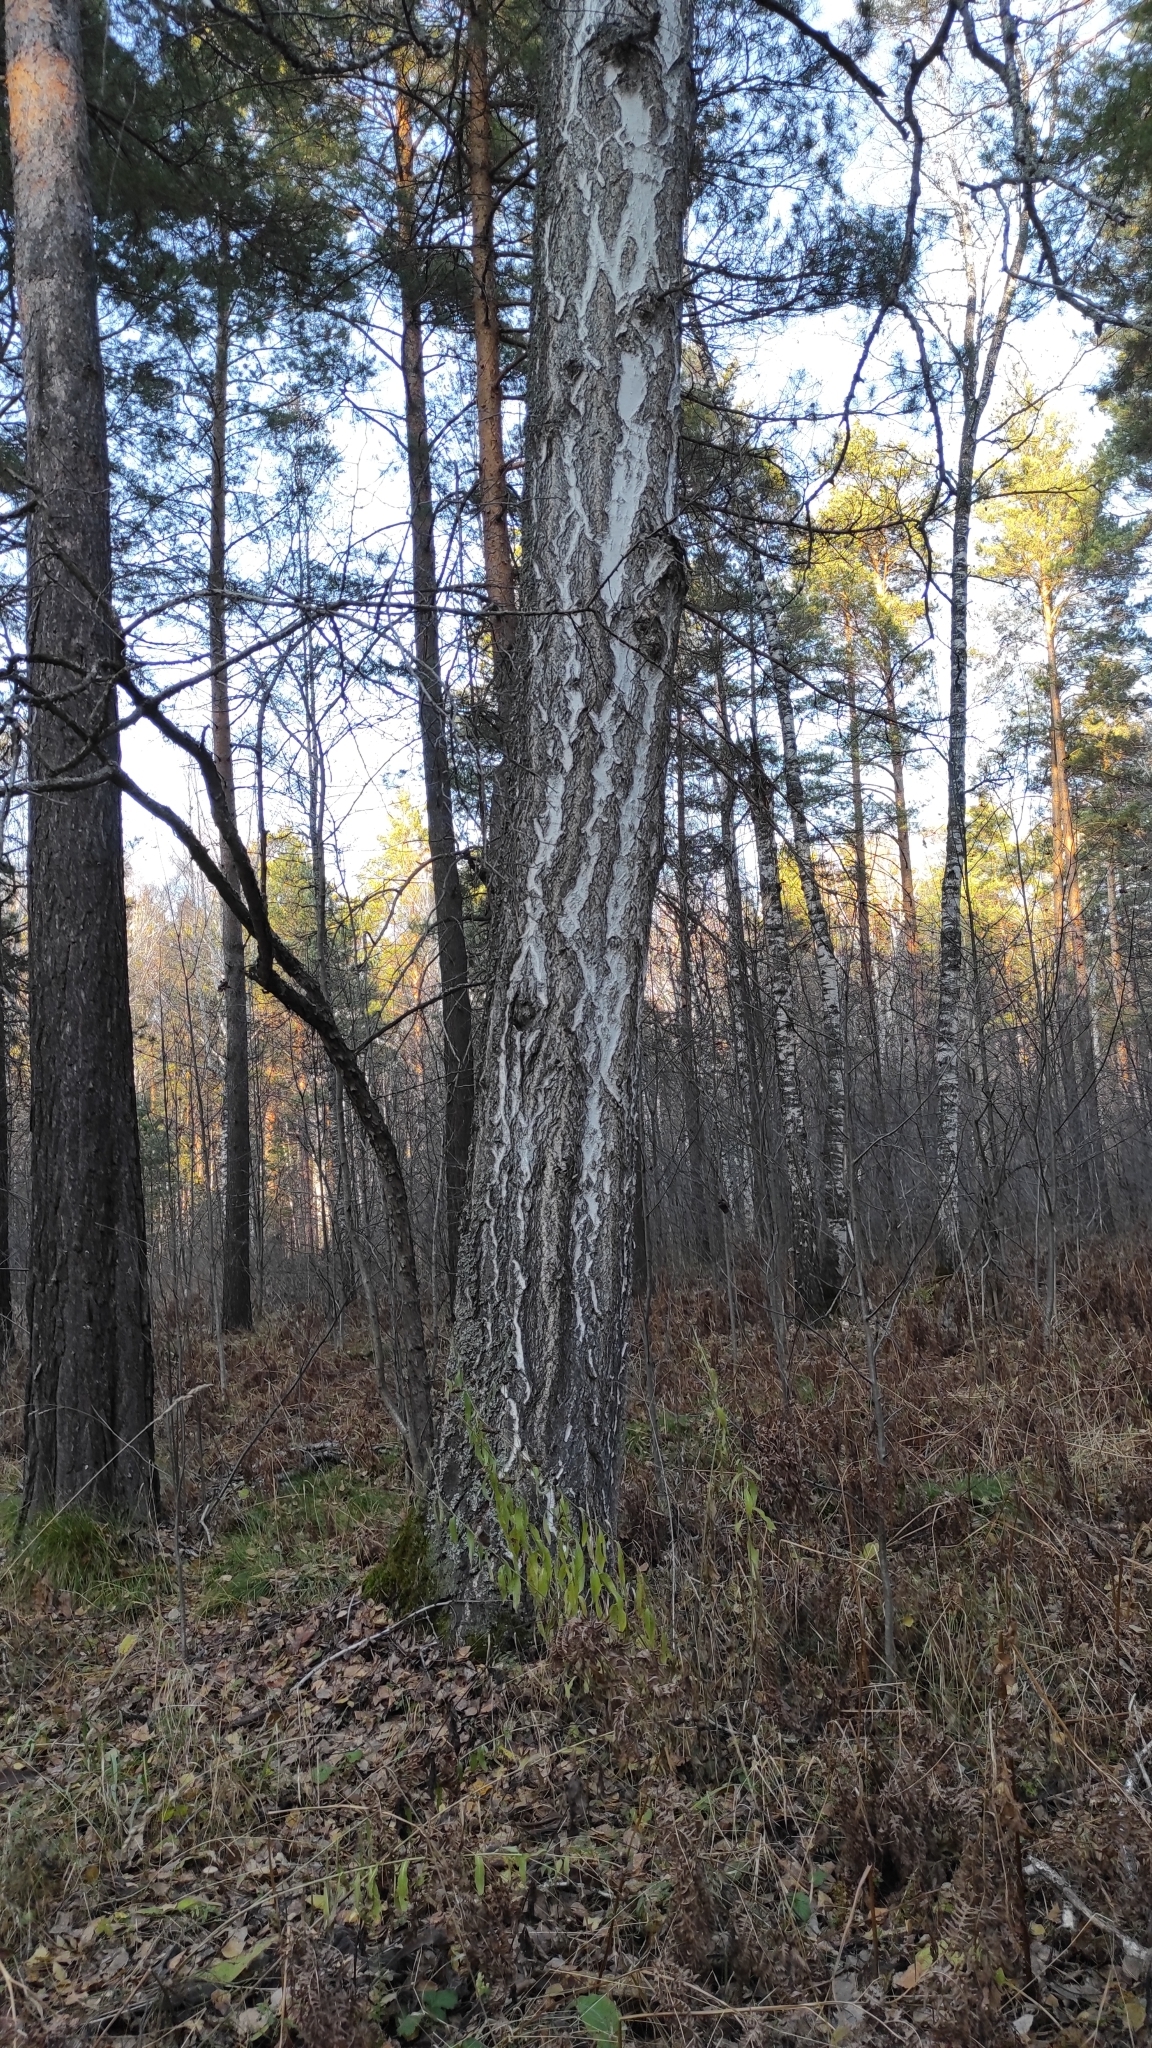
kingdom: Plantae
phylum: Tracheophyta
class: Magnoliopsida
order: Fagales
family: Betulaceae
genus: Betula
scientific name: Betula pendula
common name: Silver birch
